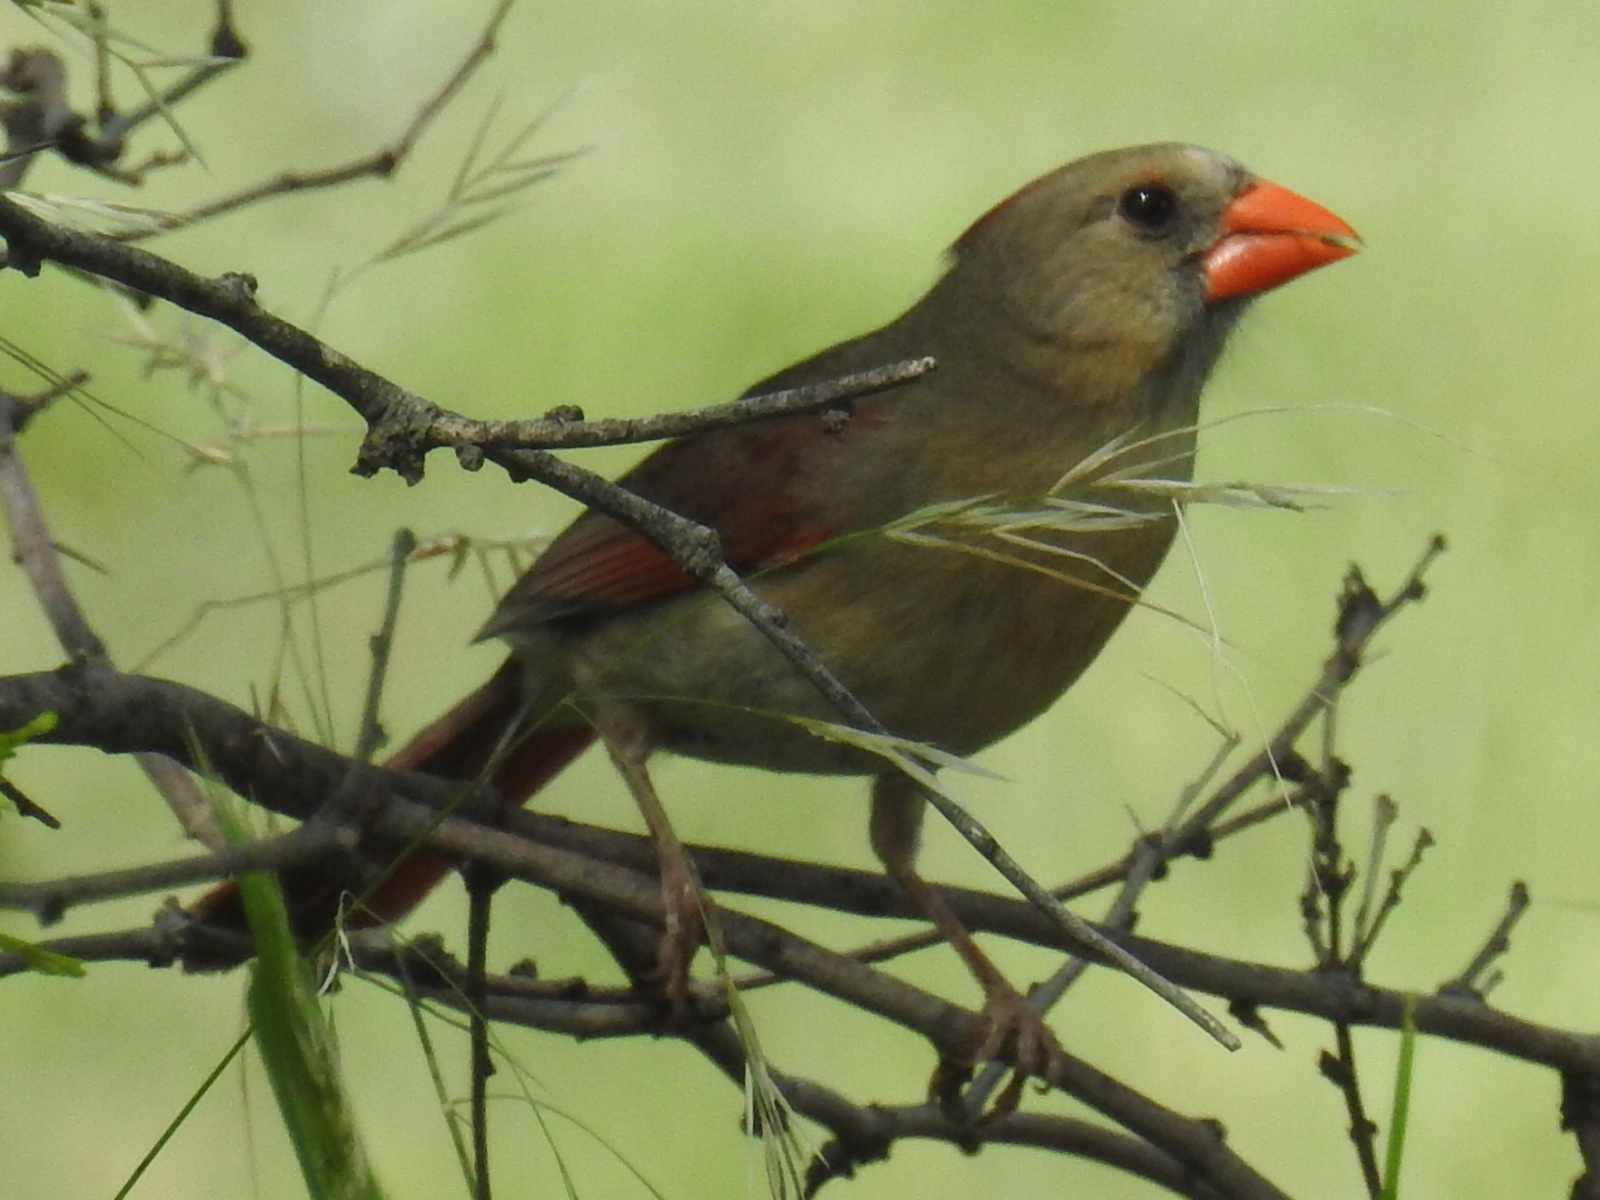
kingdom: Animalia
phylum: Chordata
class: Aves
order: Passeriformes
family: Cardinalidae
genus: Cardinalis
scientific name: Cardinalis cardinalis
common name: Northern cardinal
